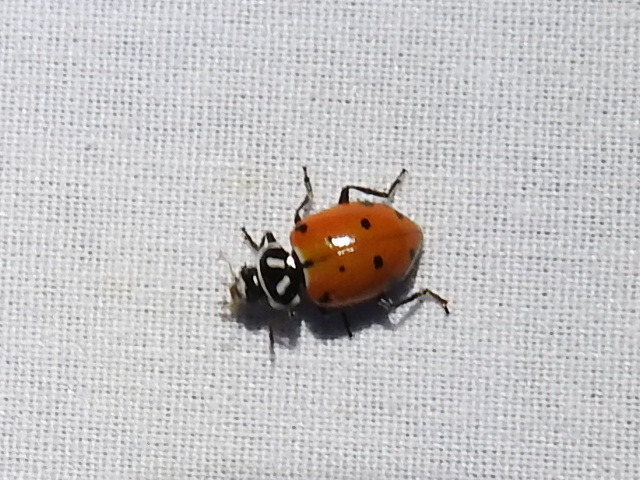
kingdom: Animalia
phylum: Arthropoda
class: Insecta
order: Coleoptera
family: Coccinellidae
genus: Hippodamia
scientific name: Hippodamia convergens
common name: Convergent lady beetle
